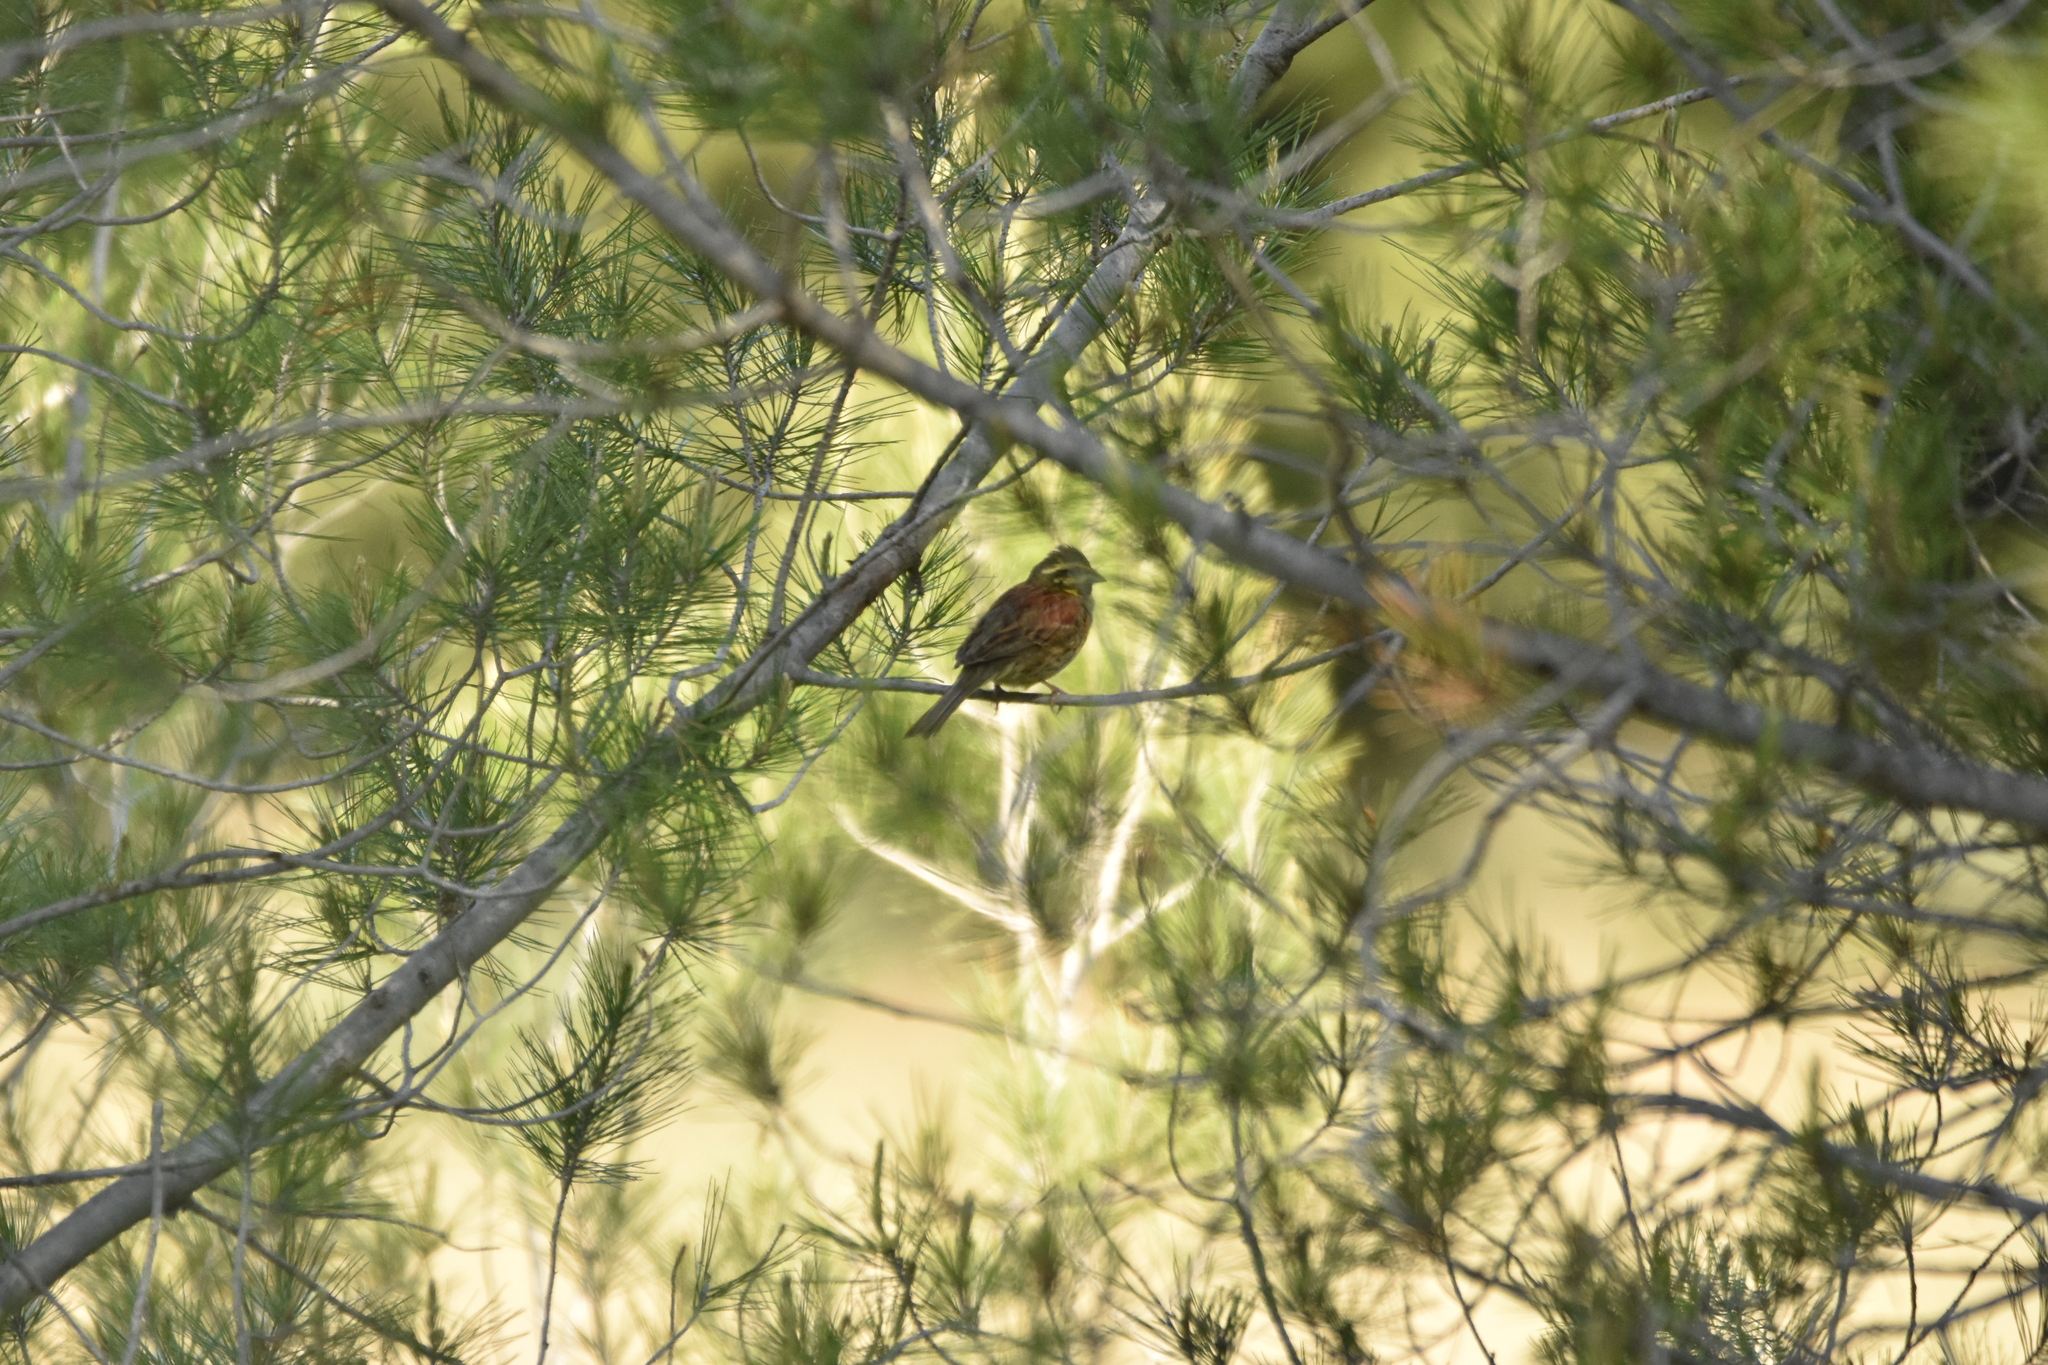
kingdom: Animalia
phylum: Chordata
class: Aves
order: Passeriformes
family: Emberizidae
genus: Emberiza
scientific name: Emberiza cirlus
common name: Cirl bunting
